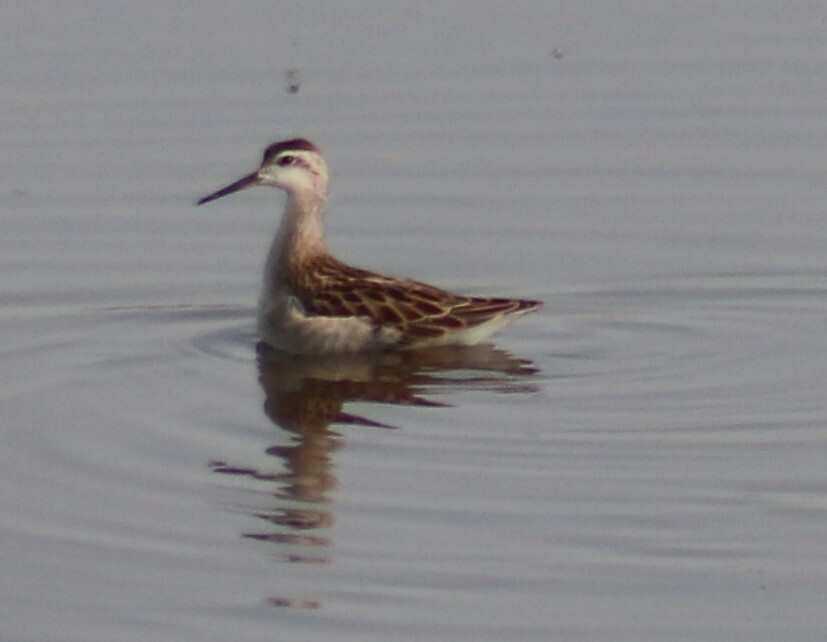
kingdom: Animalia
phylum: Chordata
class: Aves
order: Charadriiformes
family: Scolopacidae
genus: Phalaropus
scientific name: Phalaropus tricolor
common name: Wilson's phalarope
